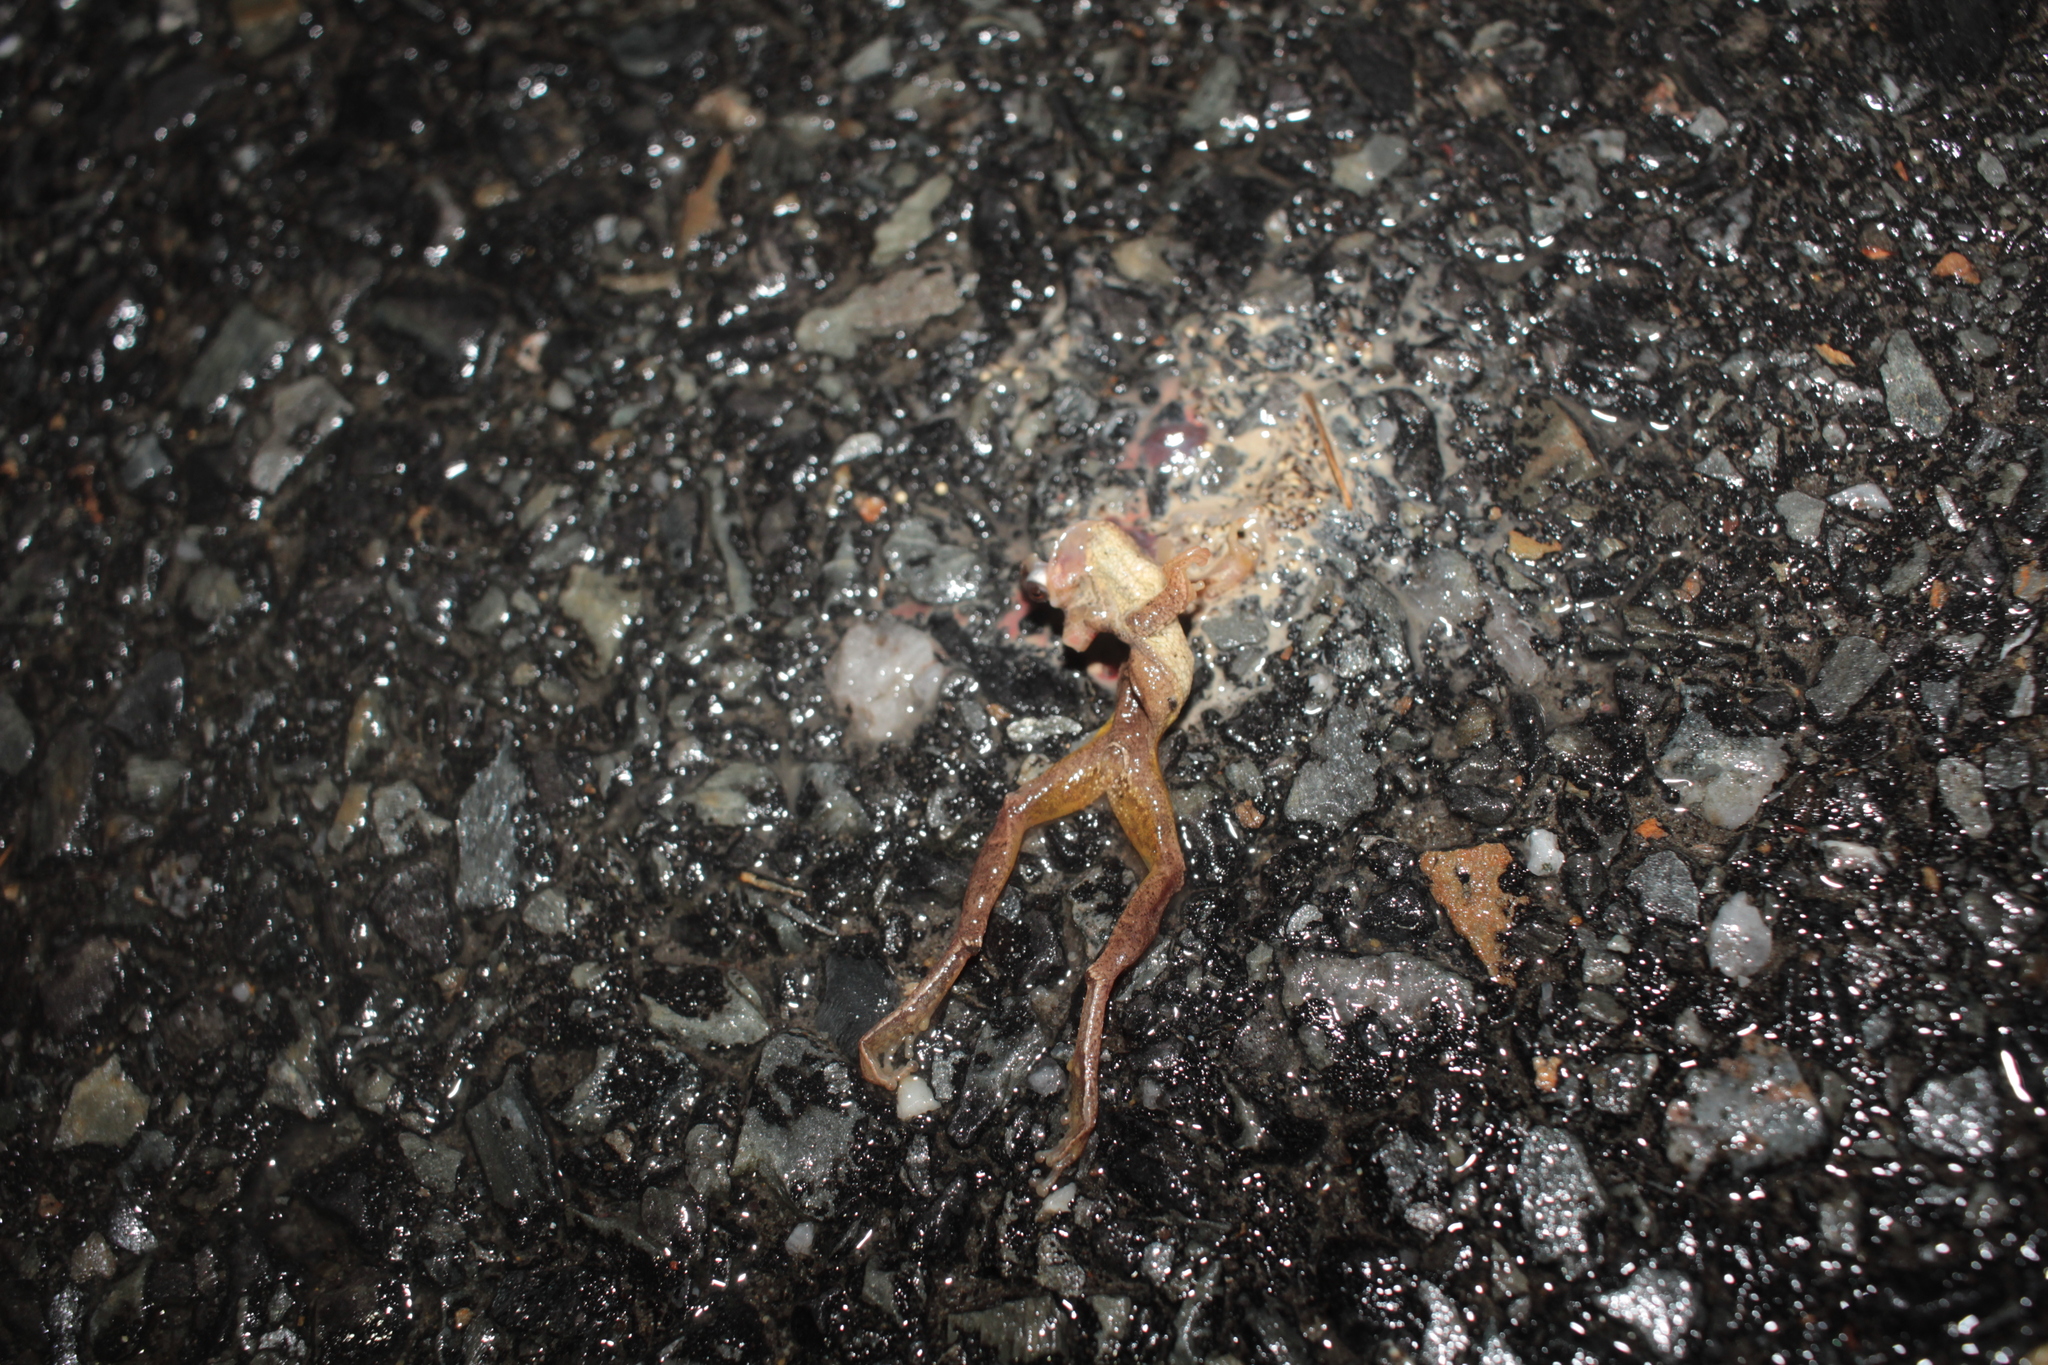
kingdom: Animalia
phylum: Chordata
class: Amphibia
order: Anura
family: Hylidae
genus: Pseudacris
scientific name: Pseudacris crucifer
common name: Spring peeper
